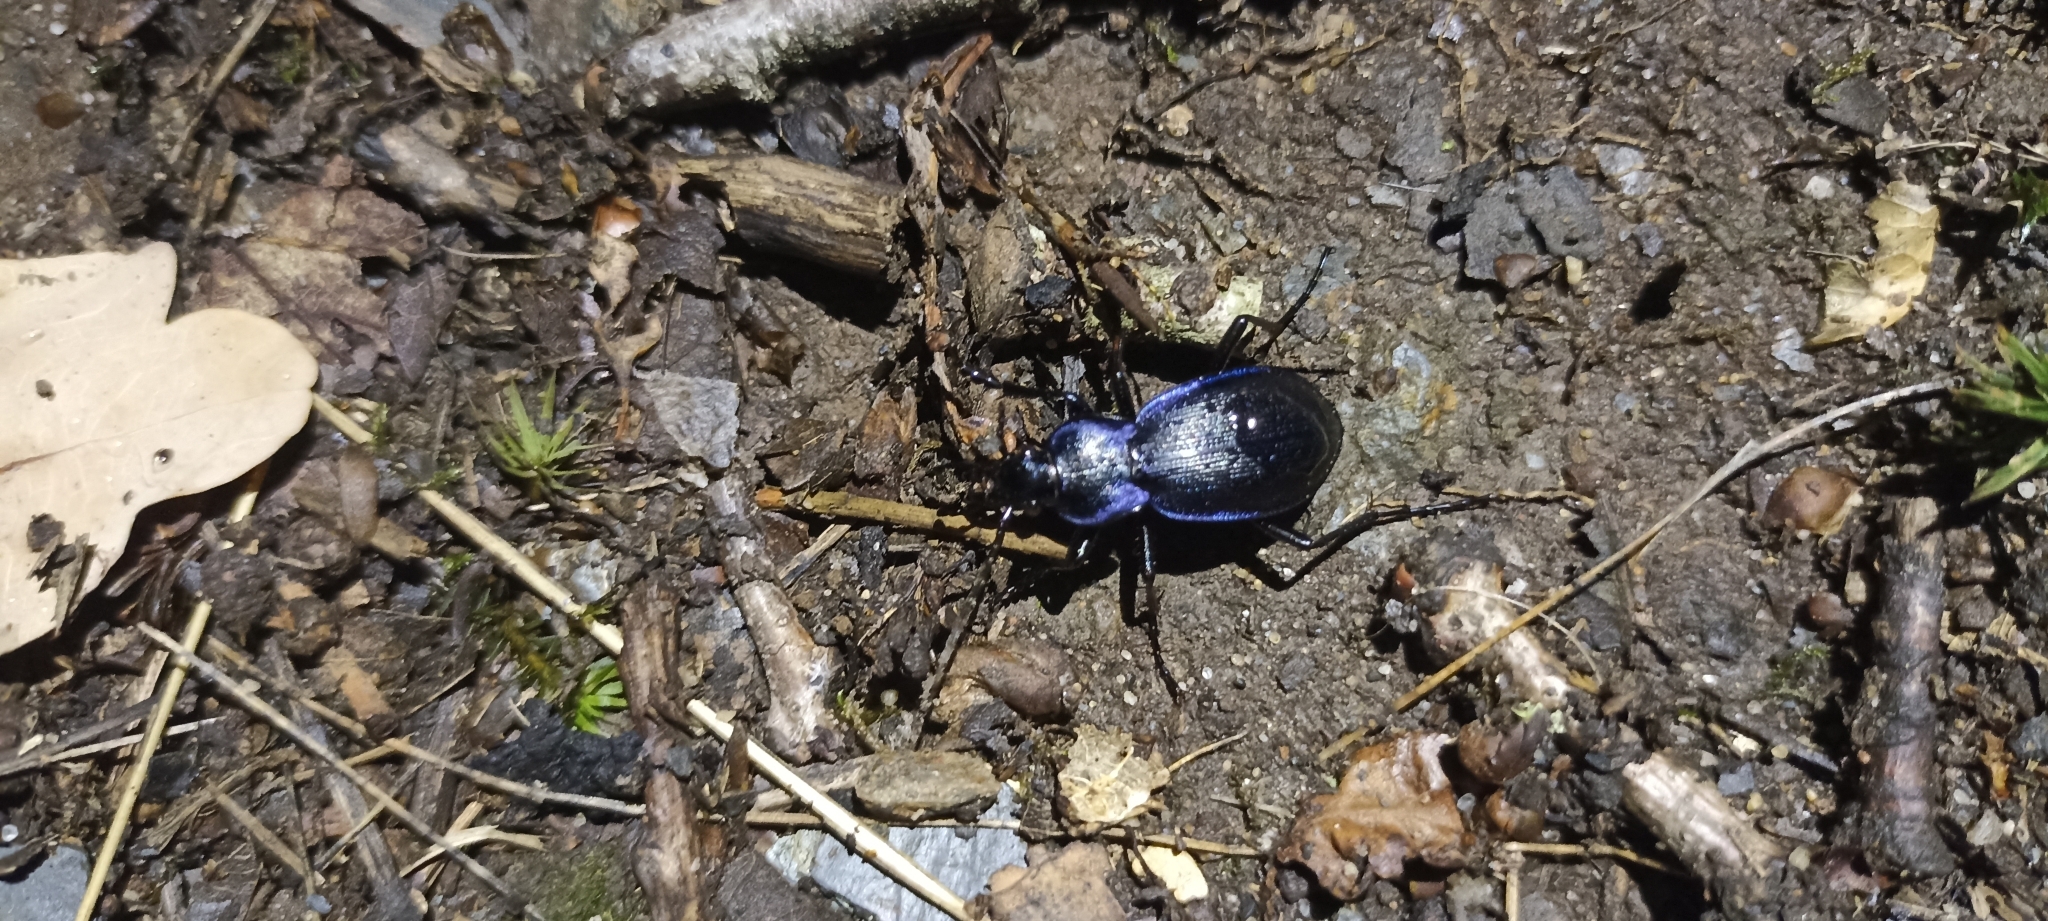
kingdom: Animalia
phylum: Arthropoda
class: Insecta
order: Coleoptera
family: Carabidae
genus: Carabus
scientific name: Carabus problematicus
